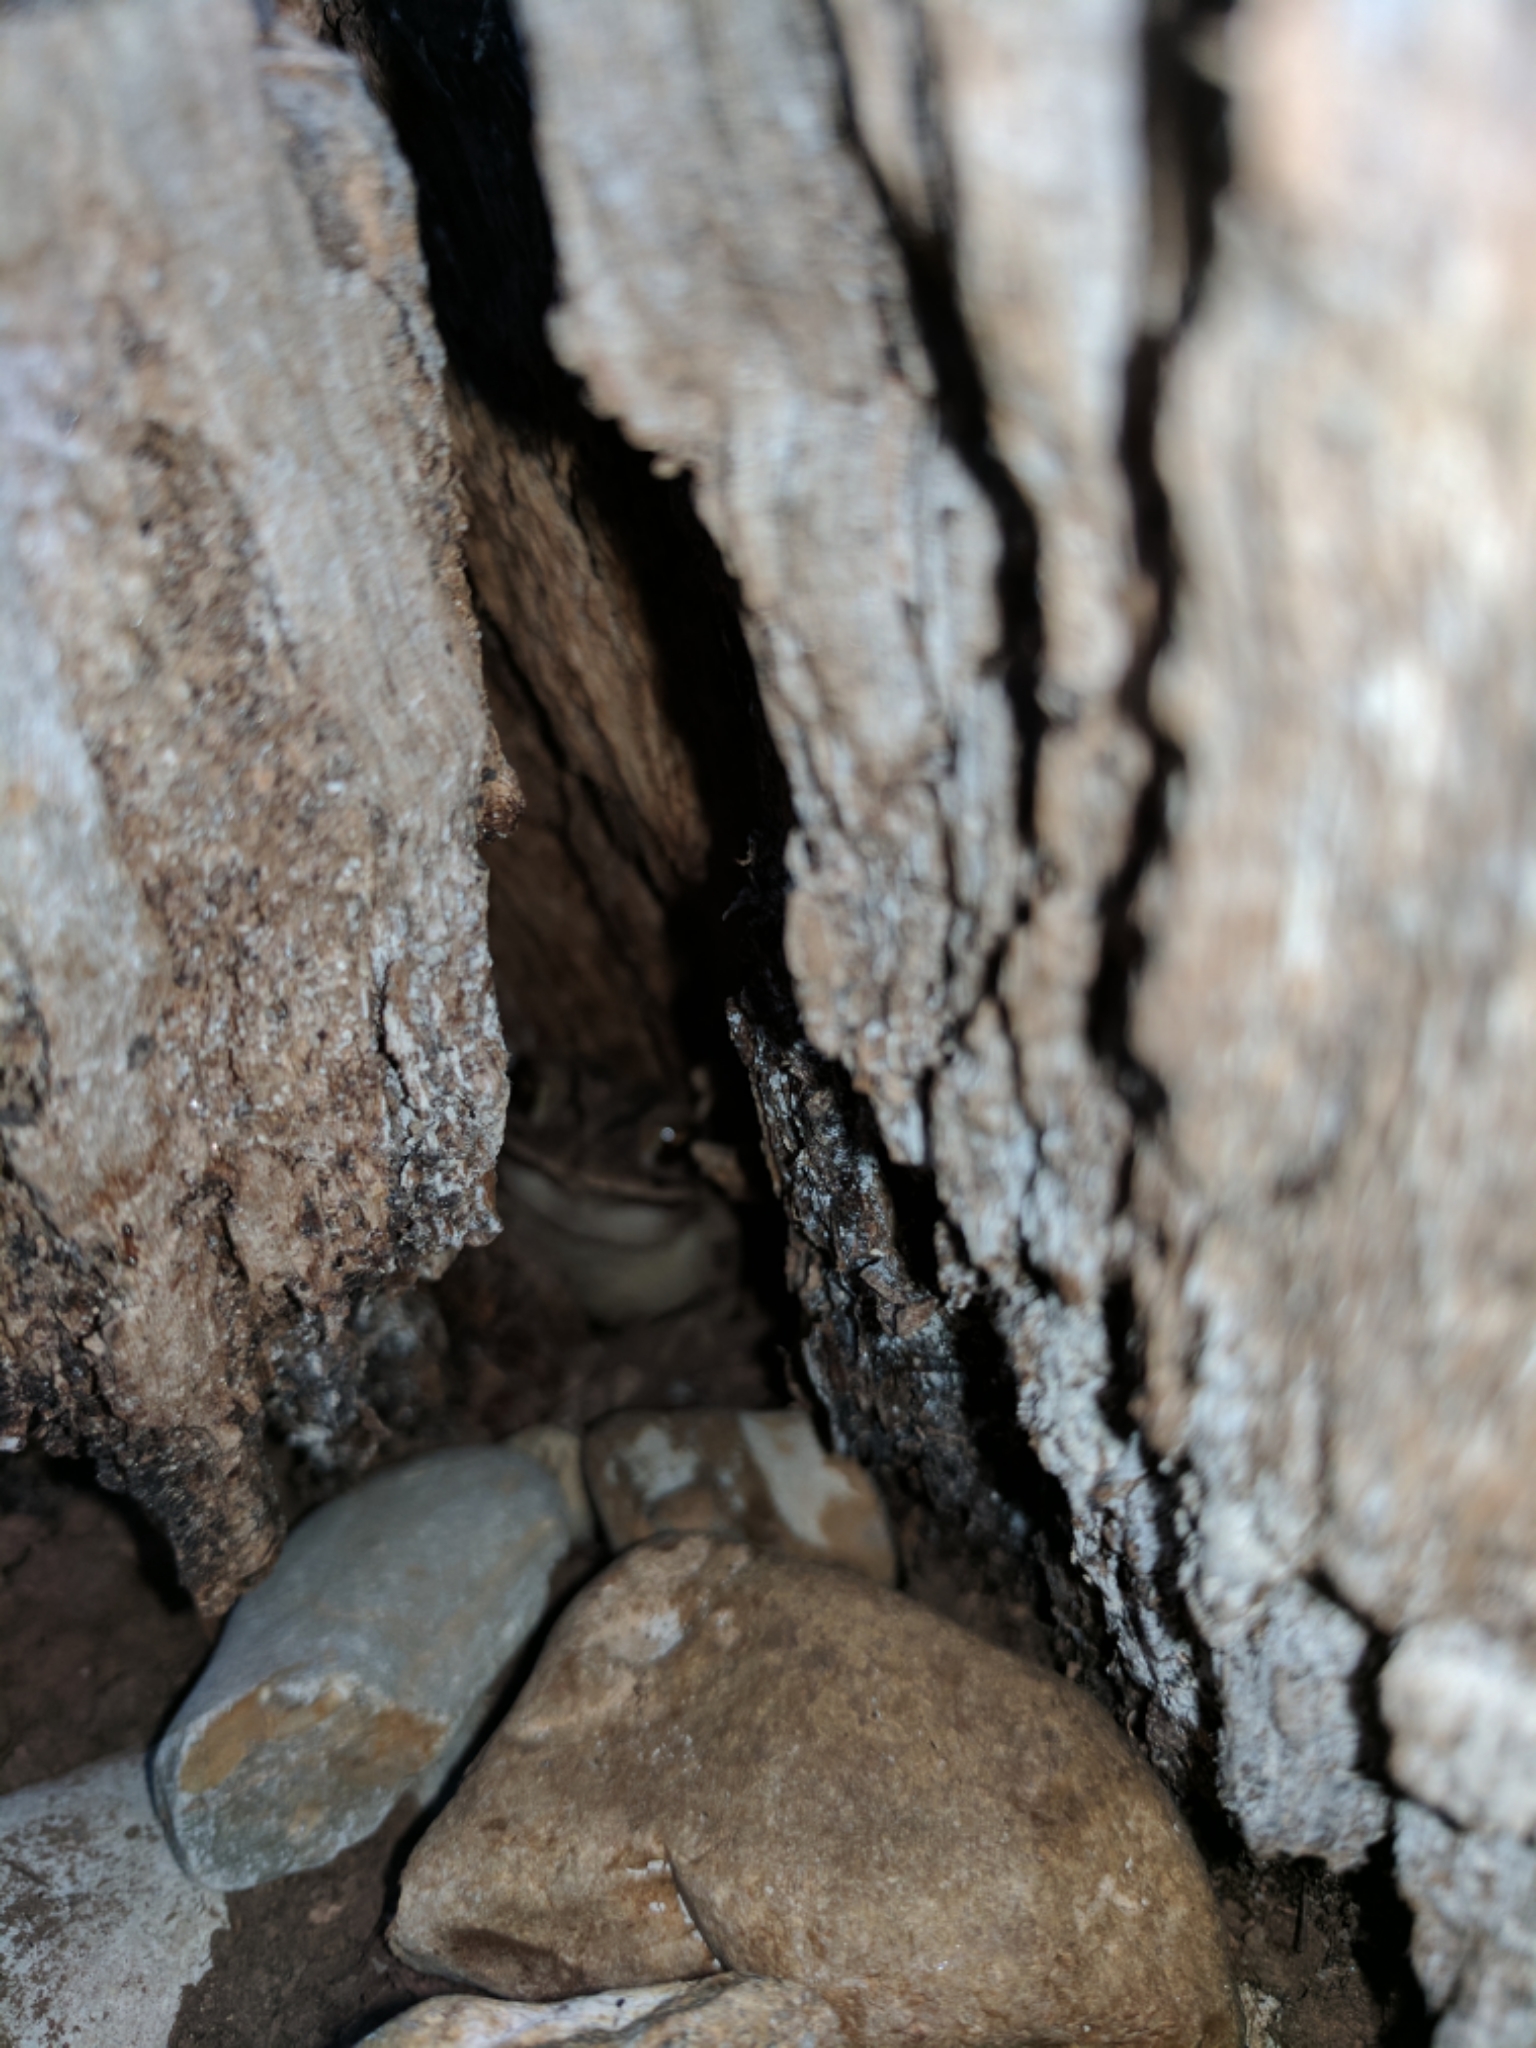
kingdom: Animalia
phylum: Chordata
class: Amphibia
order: Anura
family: Bufonidae
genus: Incilius
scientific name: Incilius nebulifer
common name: Gulf coast toad
